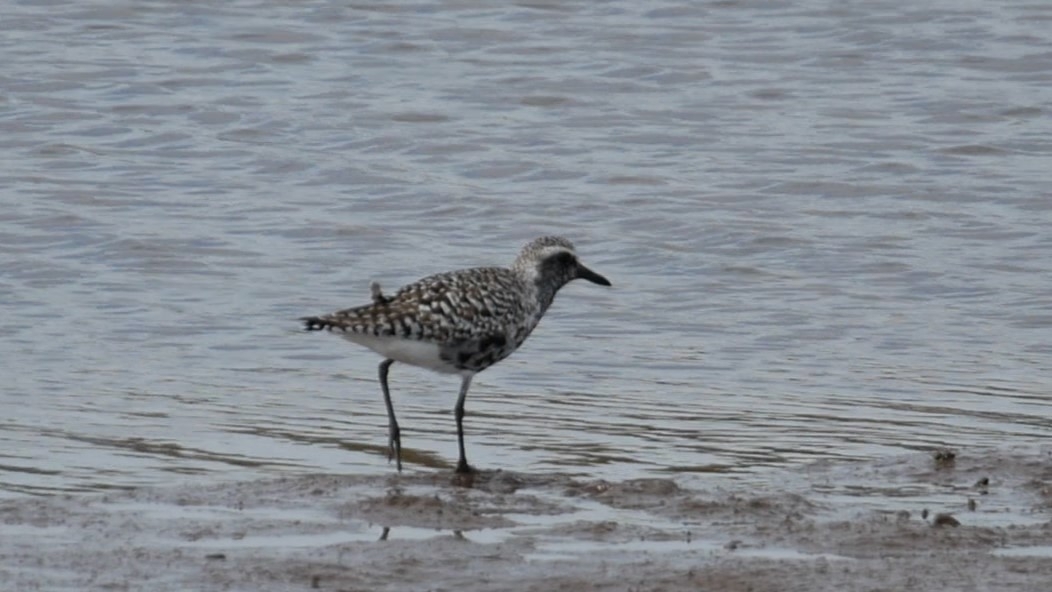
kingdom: Animalia
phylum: Chordata
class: Aves
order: Charadriiformes
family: Charadriidae
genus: Pluvialis
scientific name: Pluvialis squatarola
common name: Grey plover
